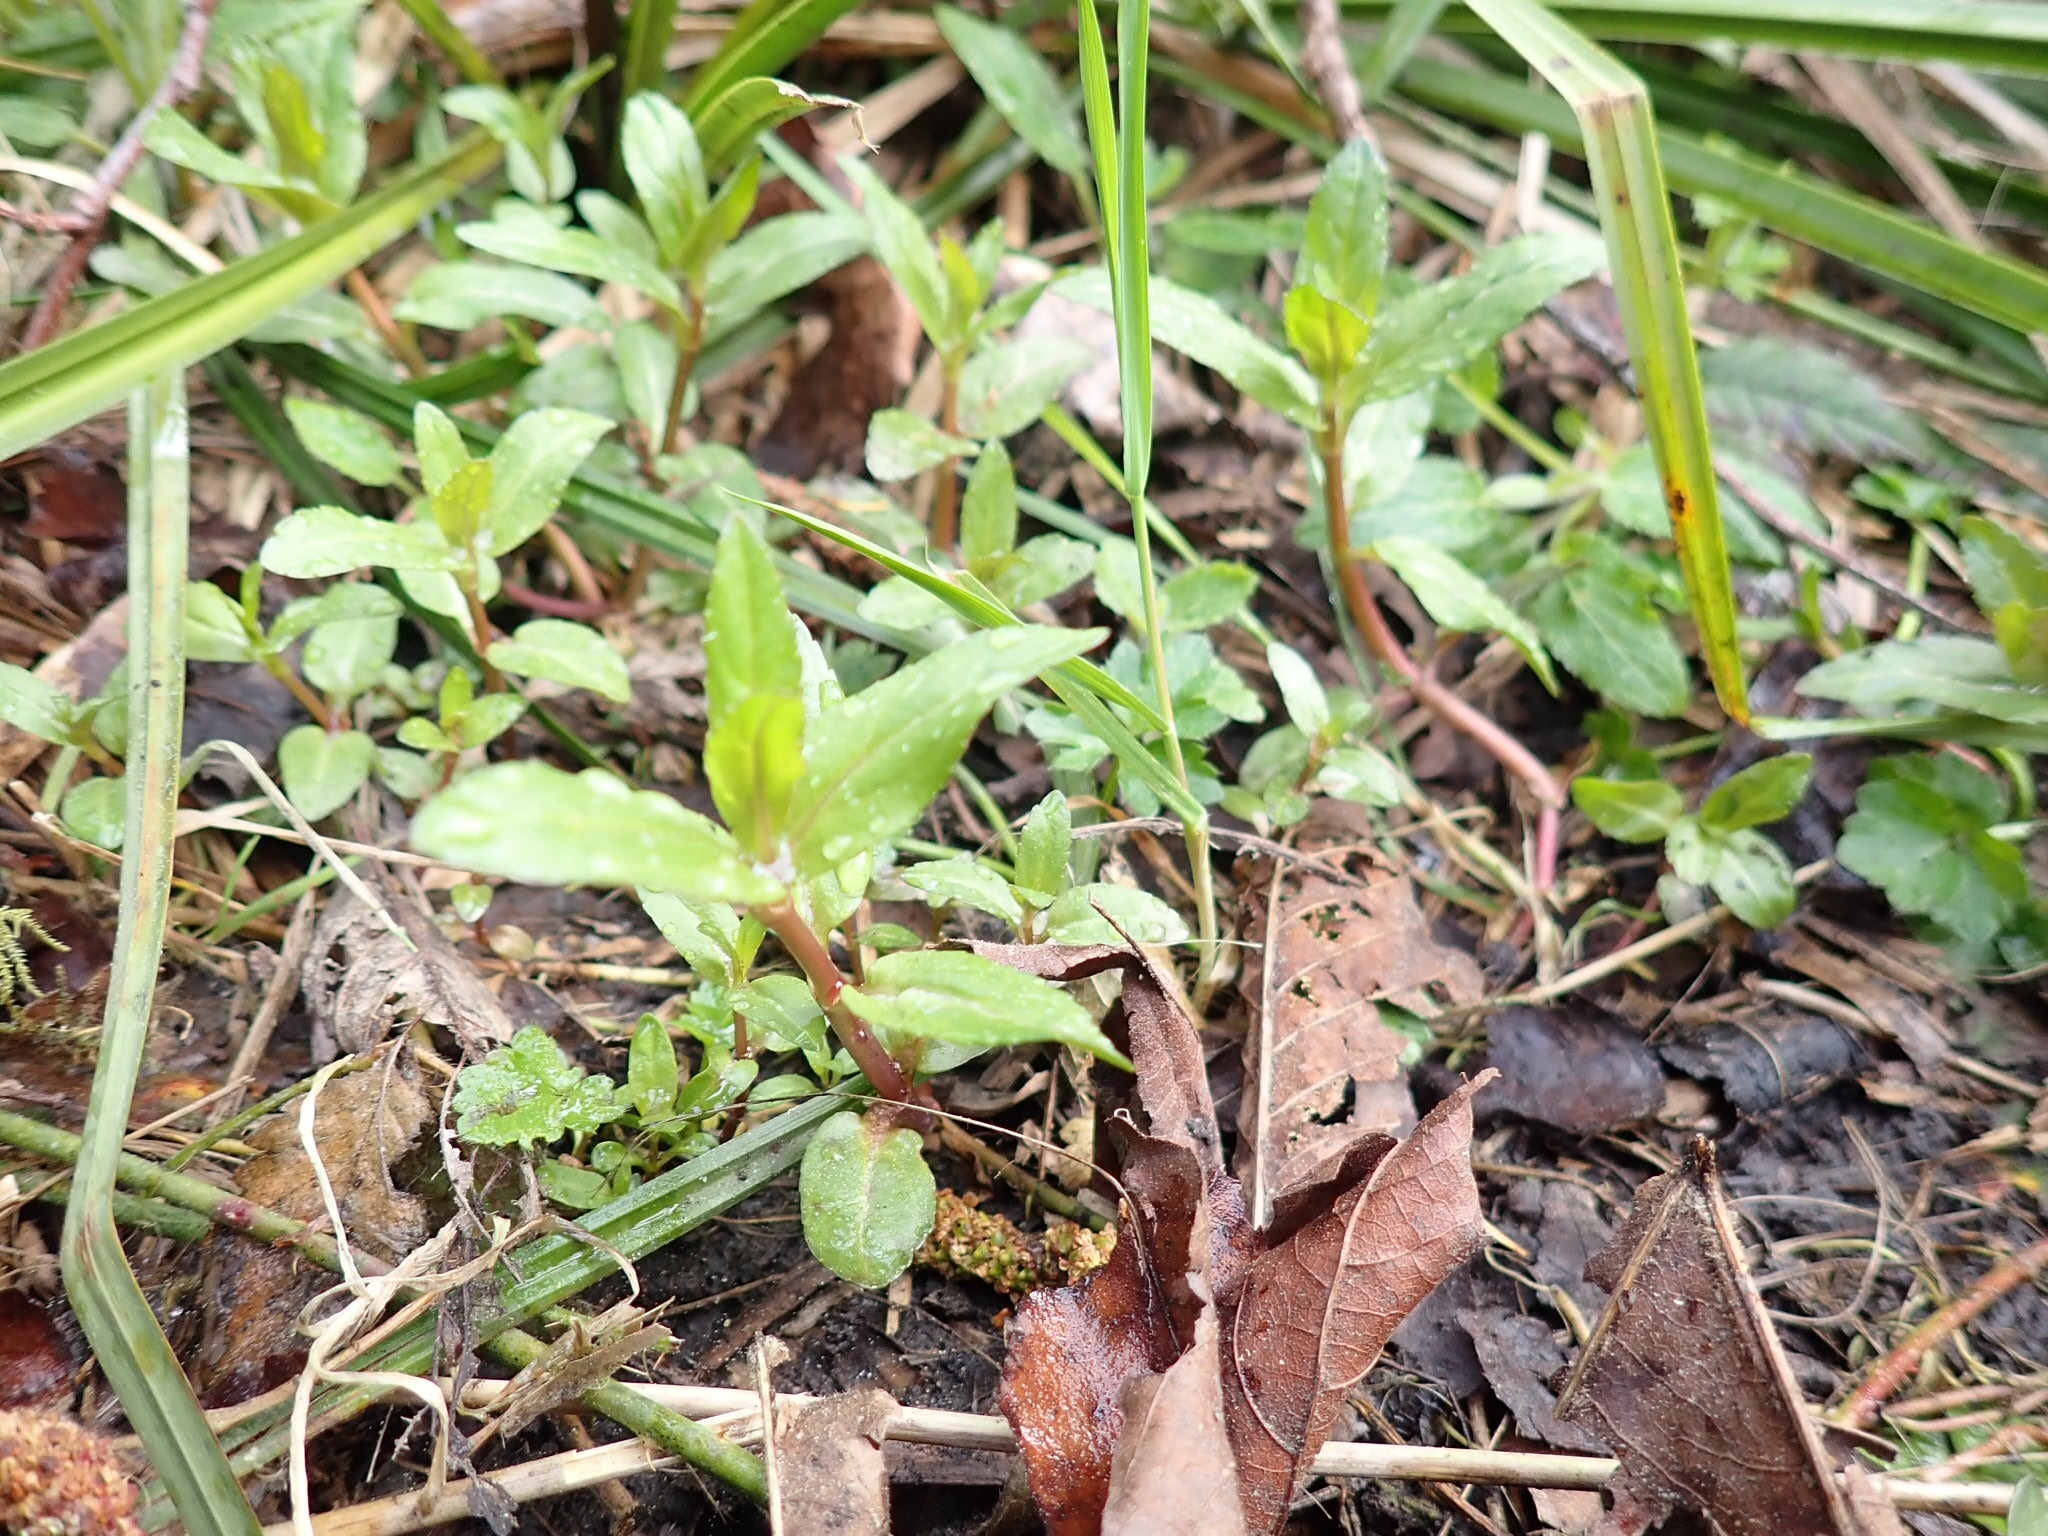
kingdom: Plantae
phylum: Tracheophyta
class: Magnoliopsida
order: Lamiales
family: Plantaginaceae
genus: Veronica
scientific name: Veronica americana
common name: American brooklime
